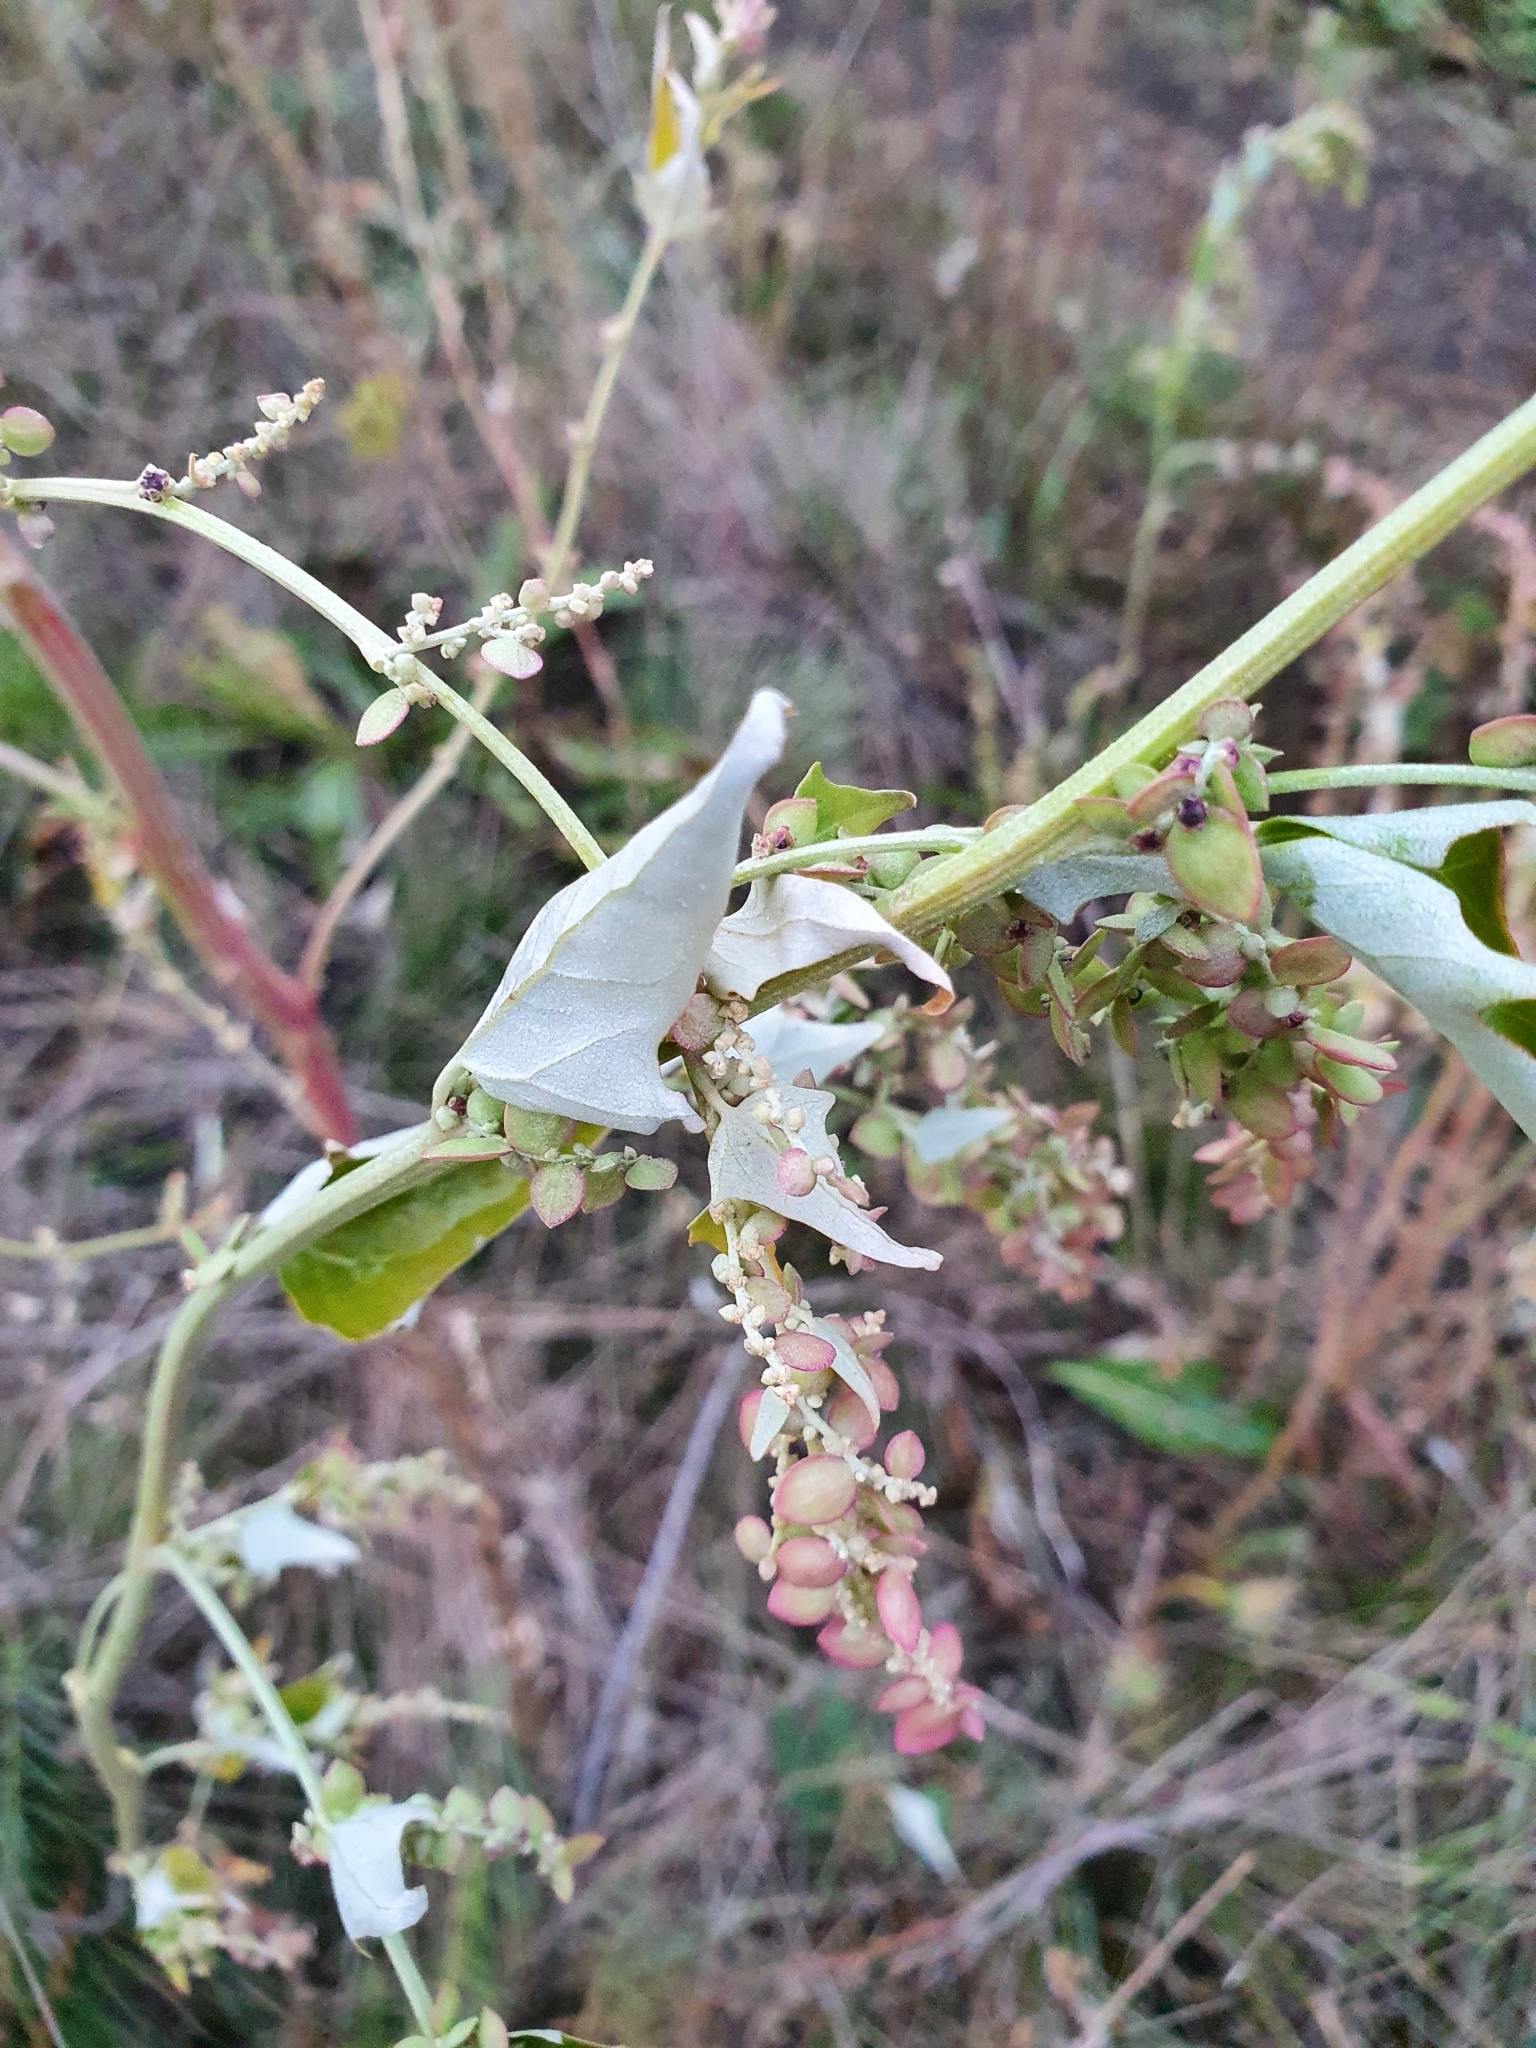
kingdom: Plantae
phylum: Tracheophyta
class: Magnoliopsida
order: Caryophyllales
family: Amaranthaceae
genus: Atriplex
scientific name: Atriplex sagittata
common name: Purple orache
